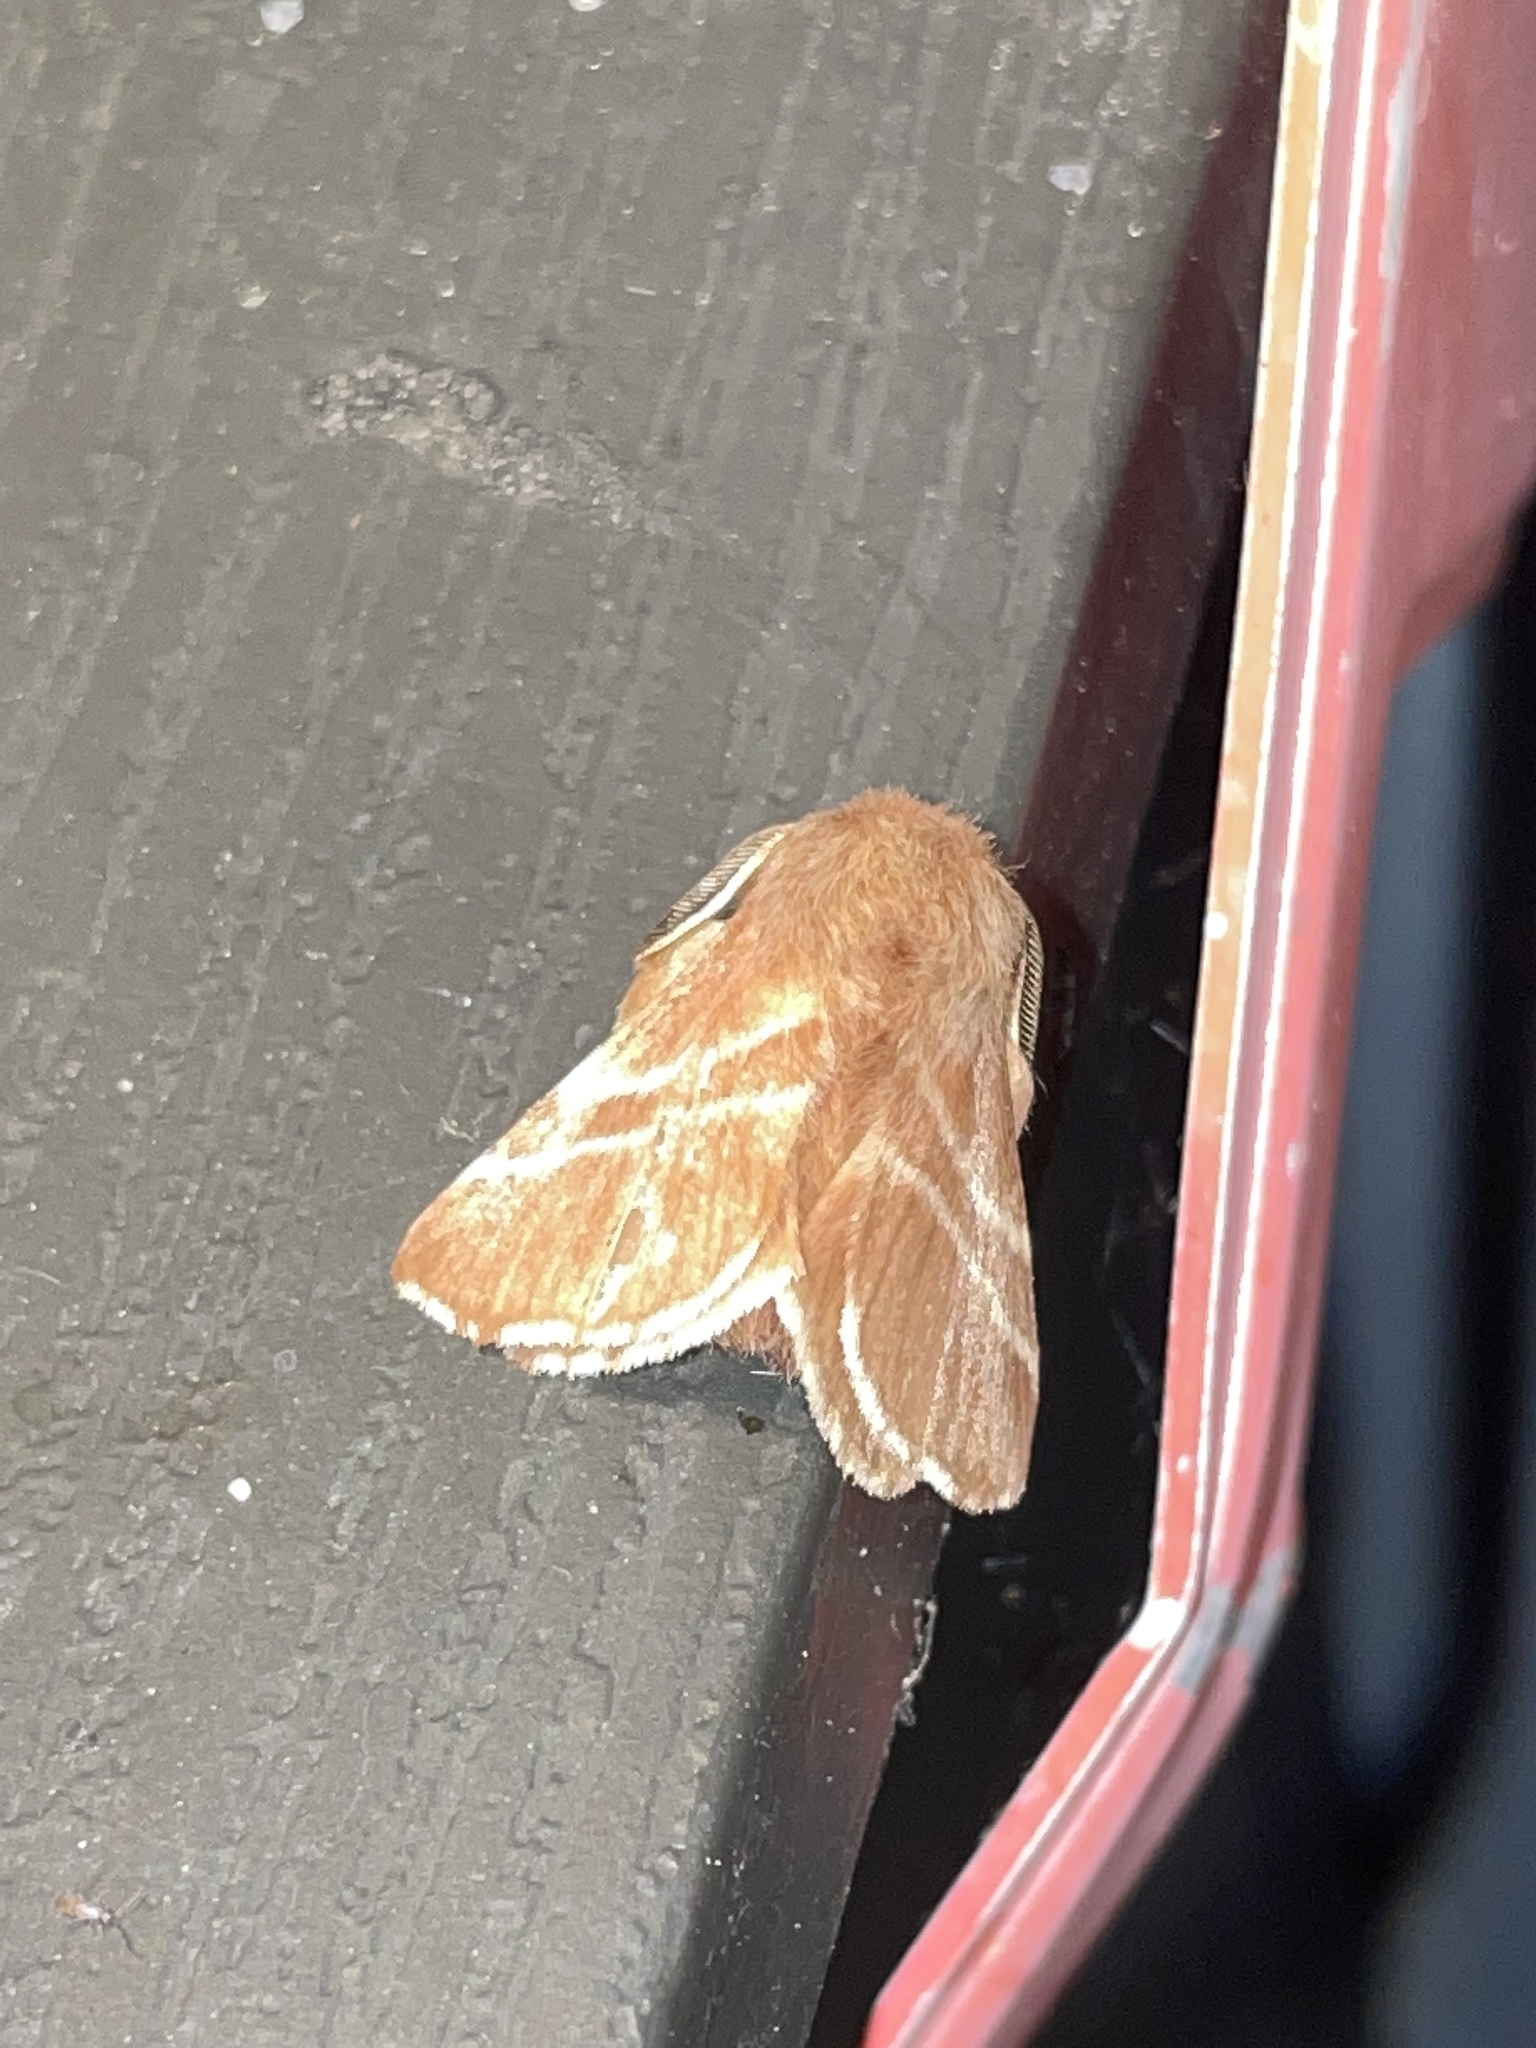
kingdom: Animalia
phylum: Arthropoda
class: Insecta
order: Lepidoptera
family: Lasiocampidae
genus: Malacosoma
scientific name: Malacosoma americana
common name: Eastern tent caterpillar moth
